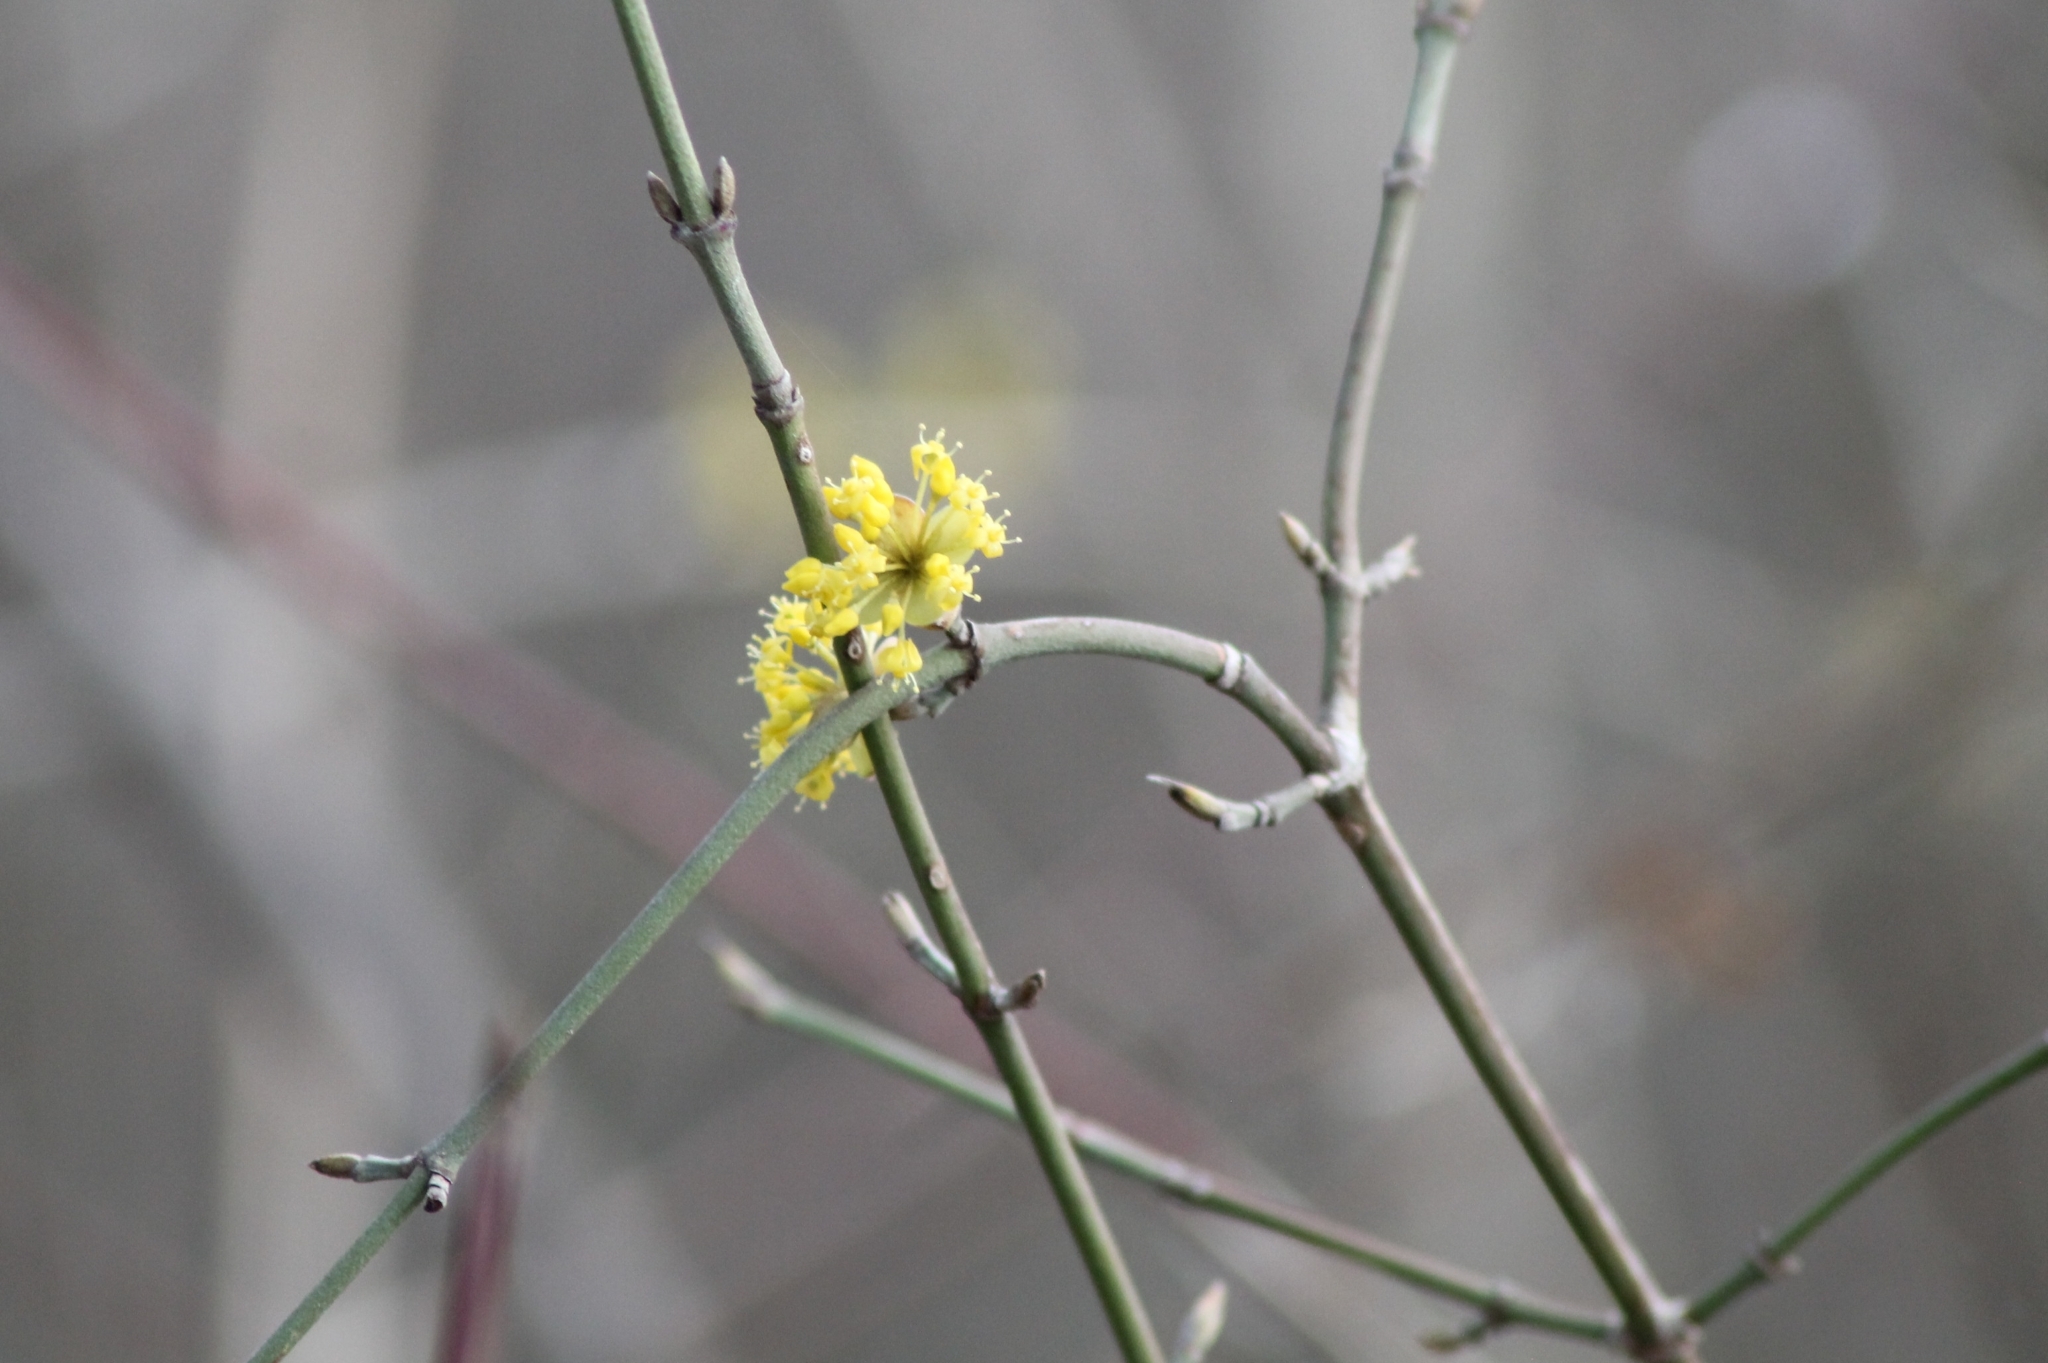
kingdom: Plantae
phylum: Tracheophyta
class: Magnoliopsida
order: Cornales
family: Cornaceae
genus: Cornus
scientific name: Cornus mas
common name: Cornelian-cherry
